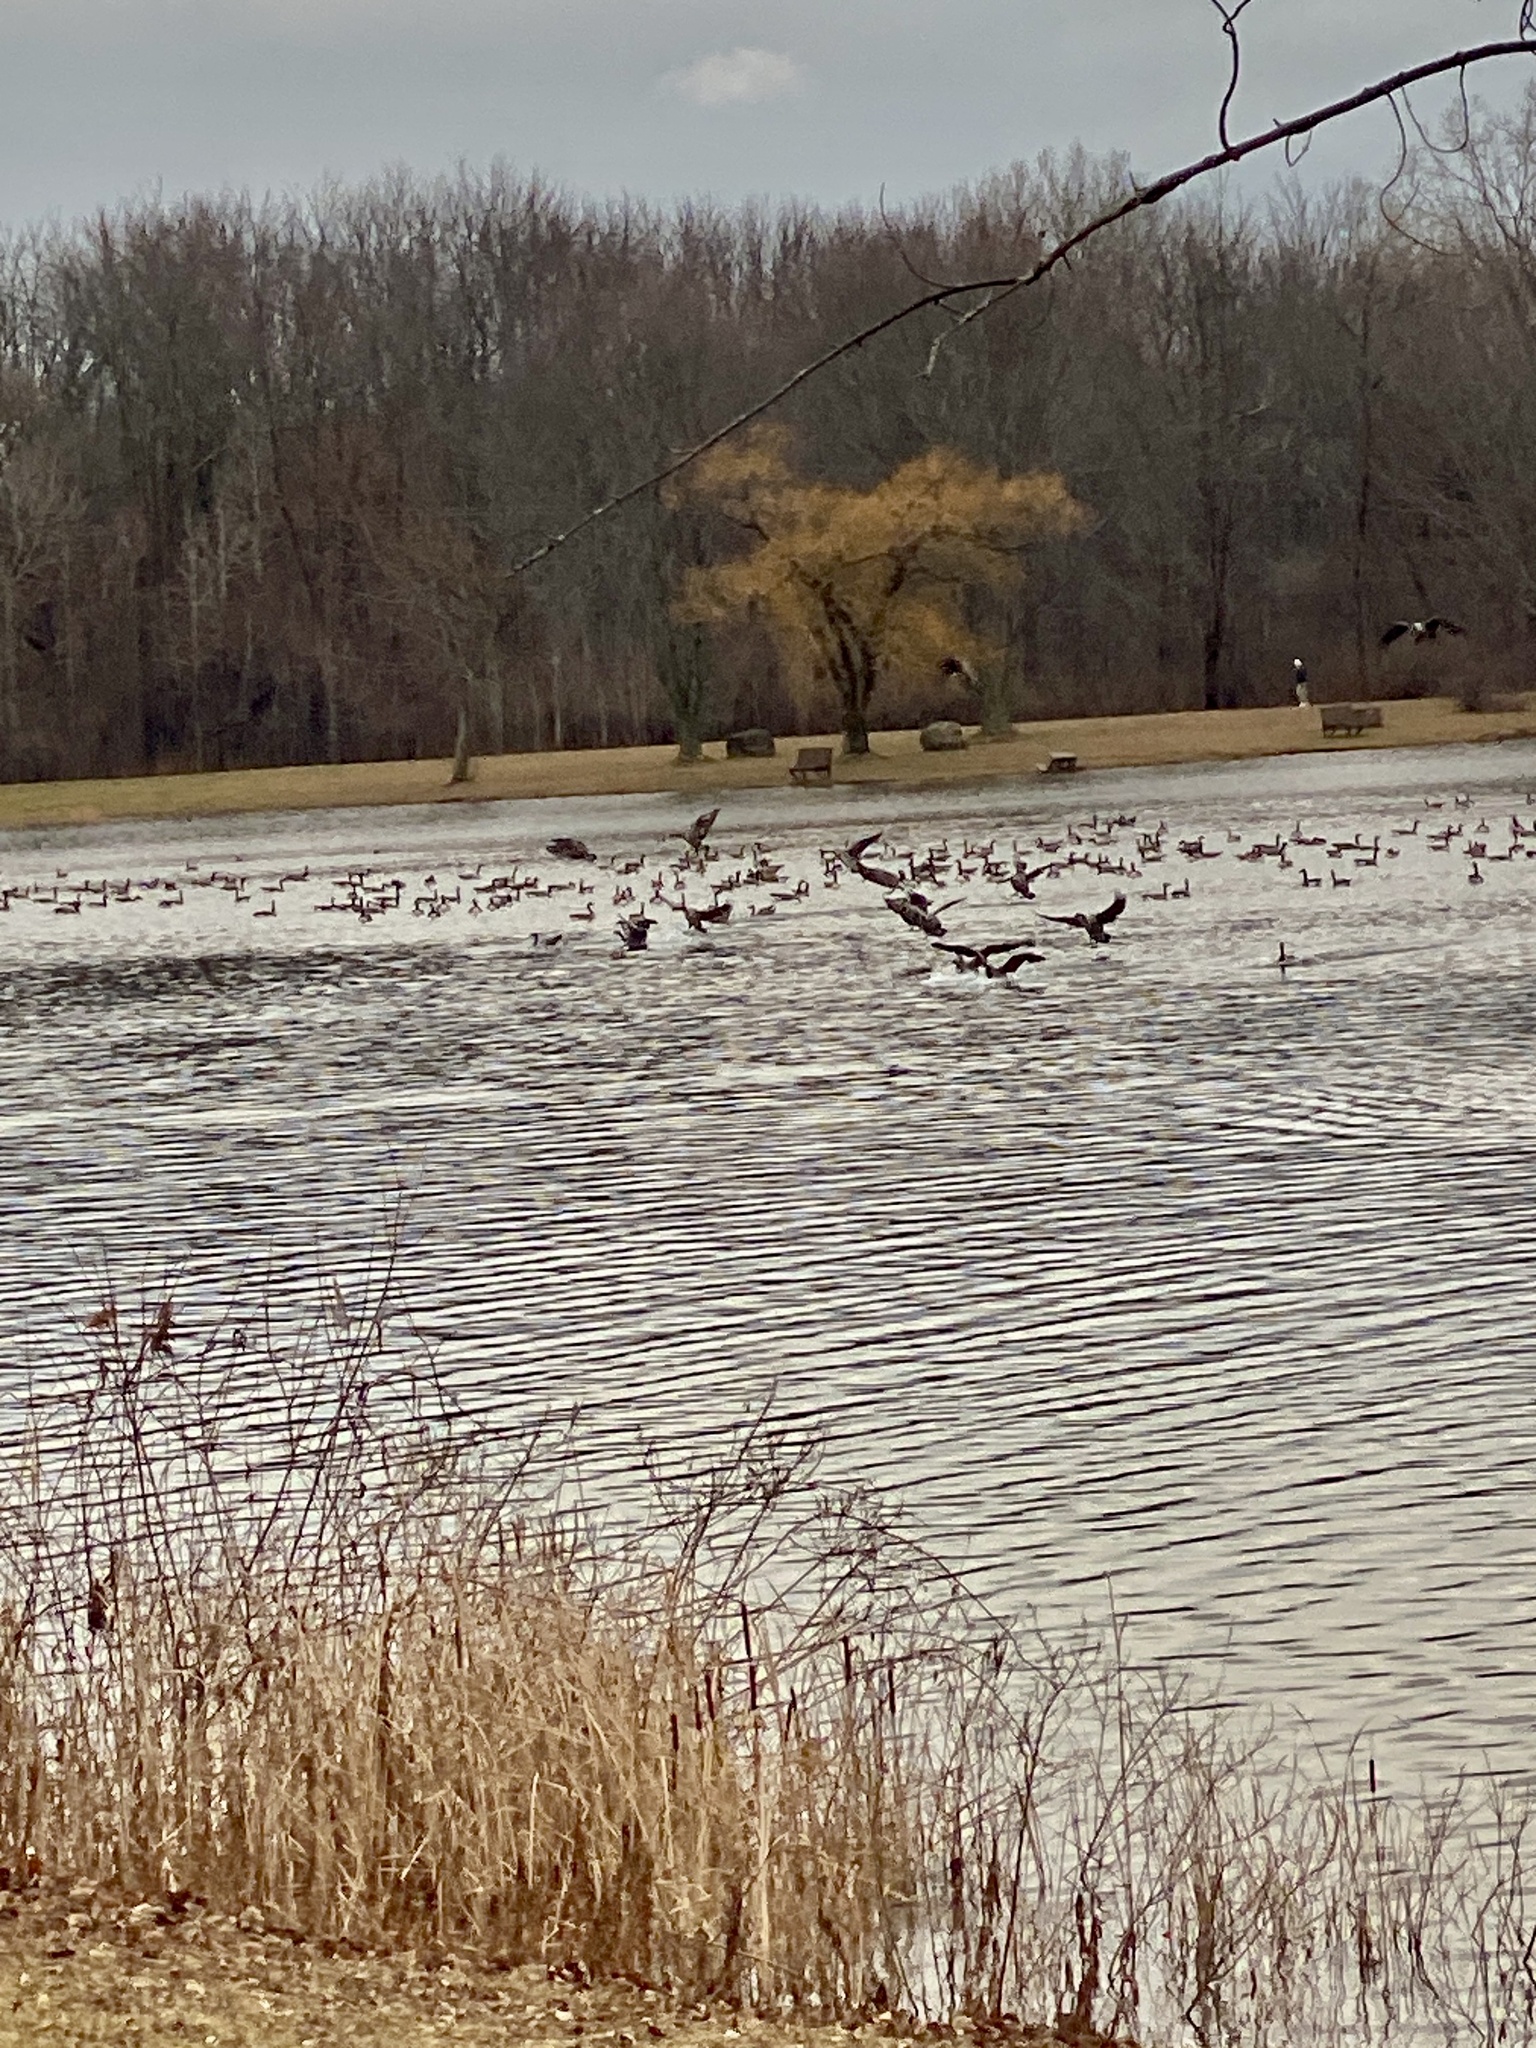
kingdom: Animalia
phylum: Chordata
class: Aves
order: Anseriformes
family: Anatidae
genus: Branta
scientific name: Branta canadensis
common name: Canada goose
